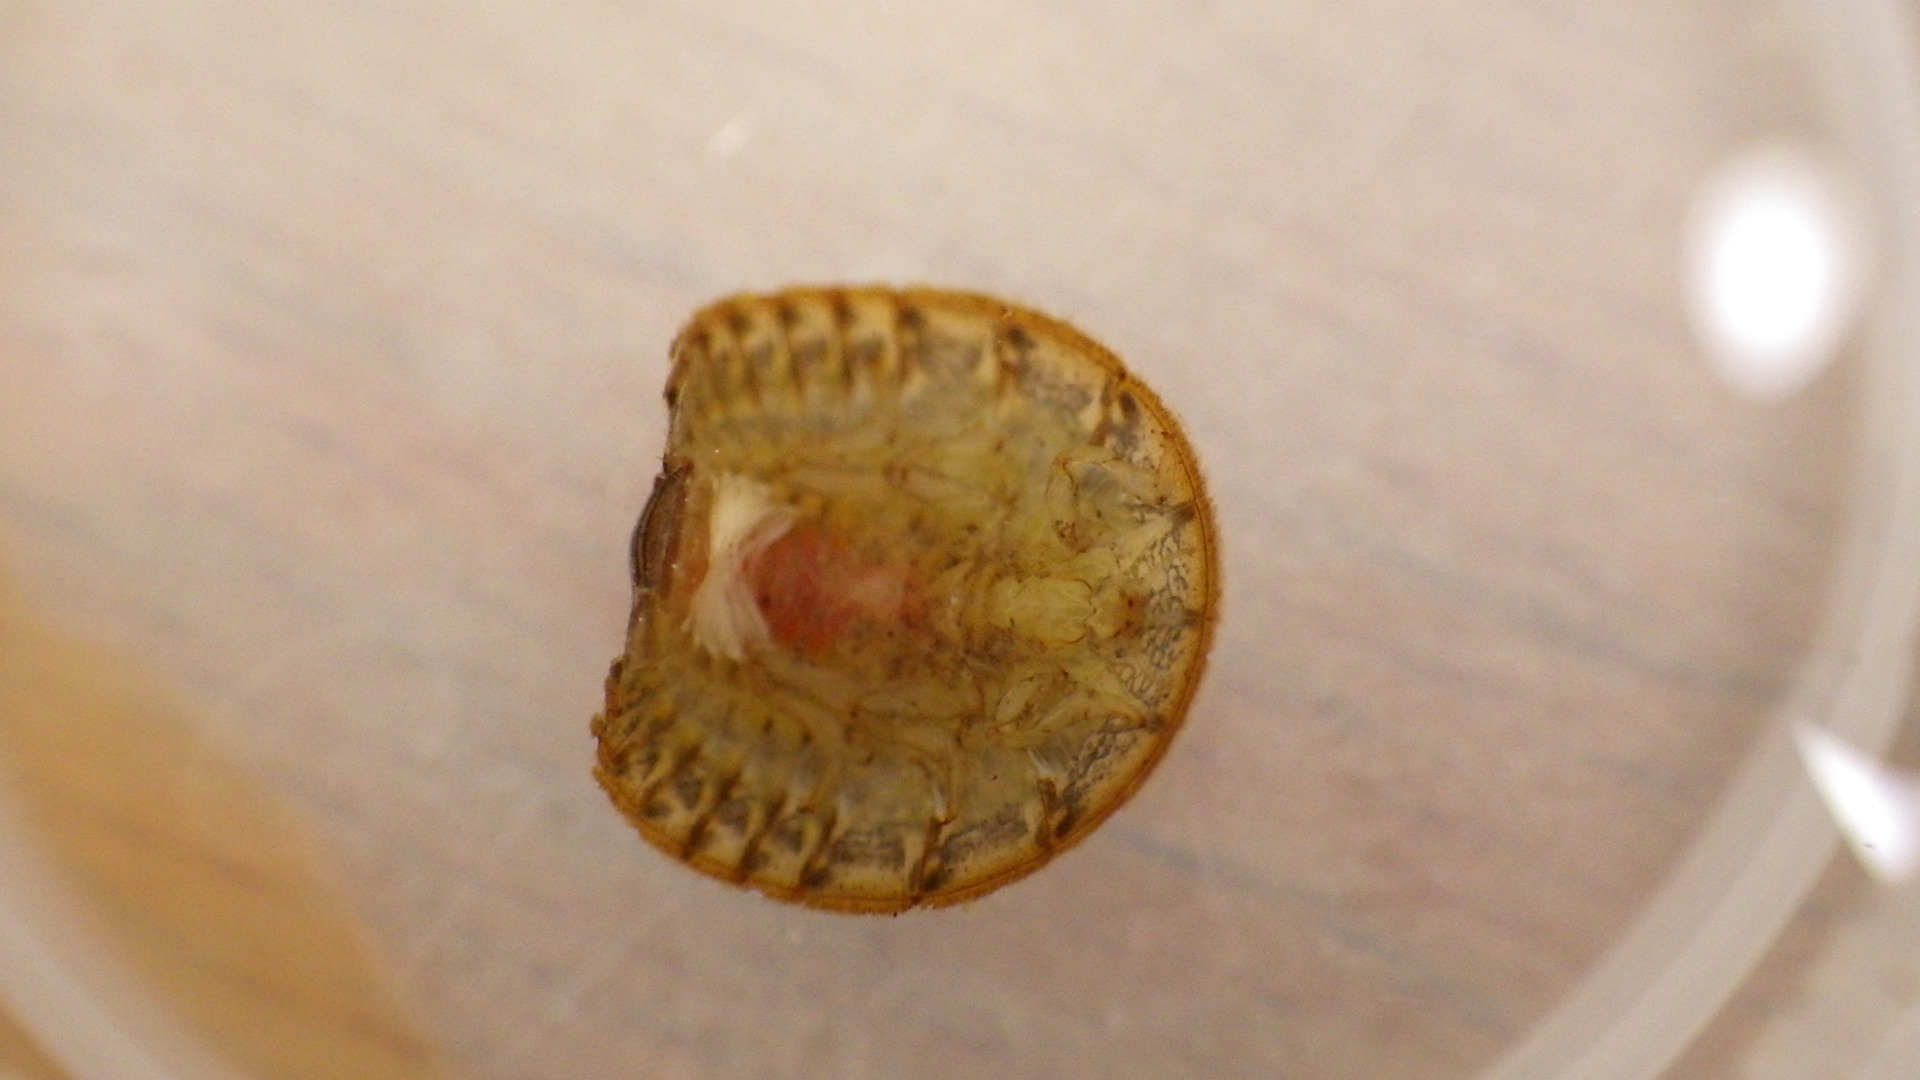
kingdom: Animalia
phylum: Arthropoda
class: Insecta
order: Coleoptera
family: Psephenidae
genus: Psephenus
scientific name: Psephenus herricki
